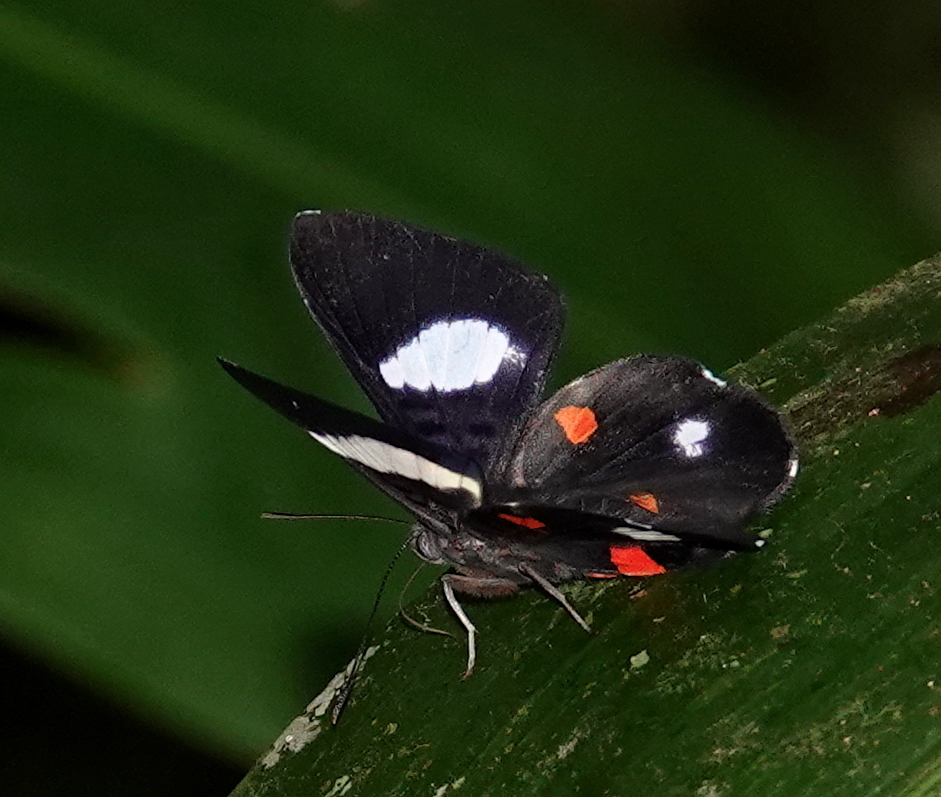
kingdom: Animalia
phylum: Arthropoda
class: Insecta
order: Lepidoptera
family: Riodinidae
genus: Cyrenia
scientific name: Cyrenia martia
